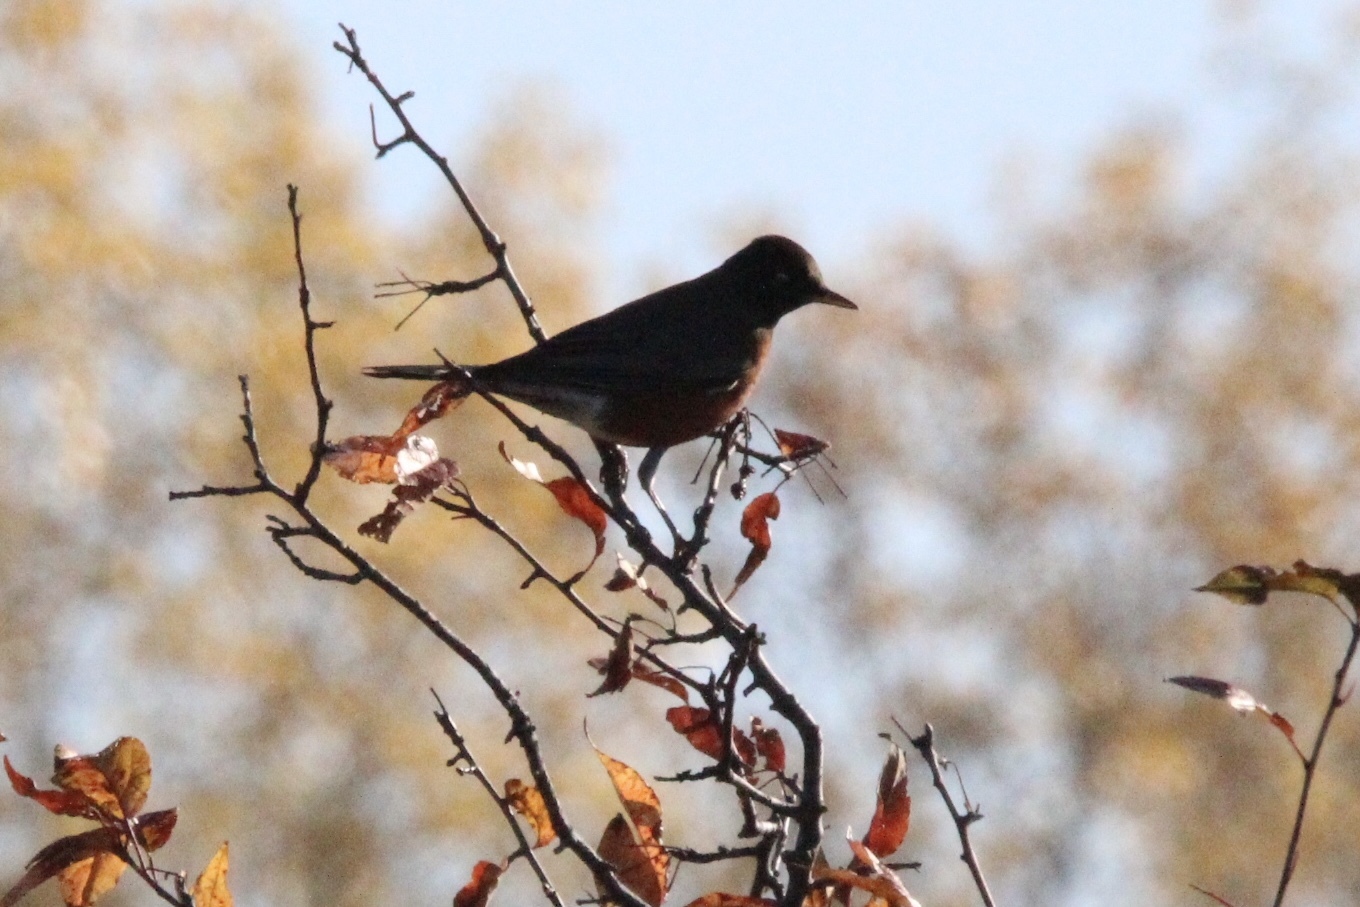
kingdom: Animalia
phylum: Chordata
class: Aves
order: Passeriformes
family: Turdidae
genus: Turdus
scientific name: Turdus migratorius
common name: American robin
